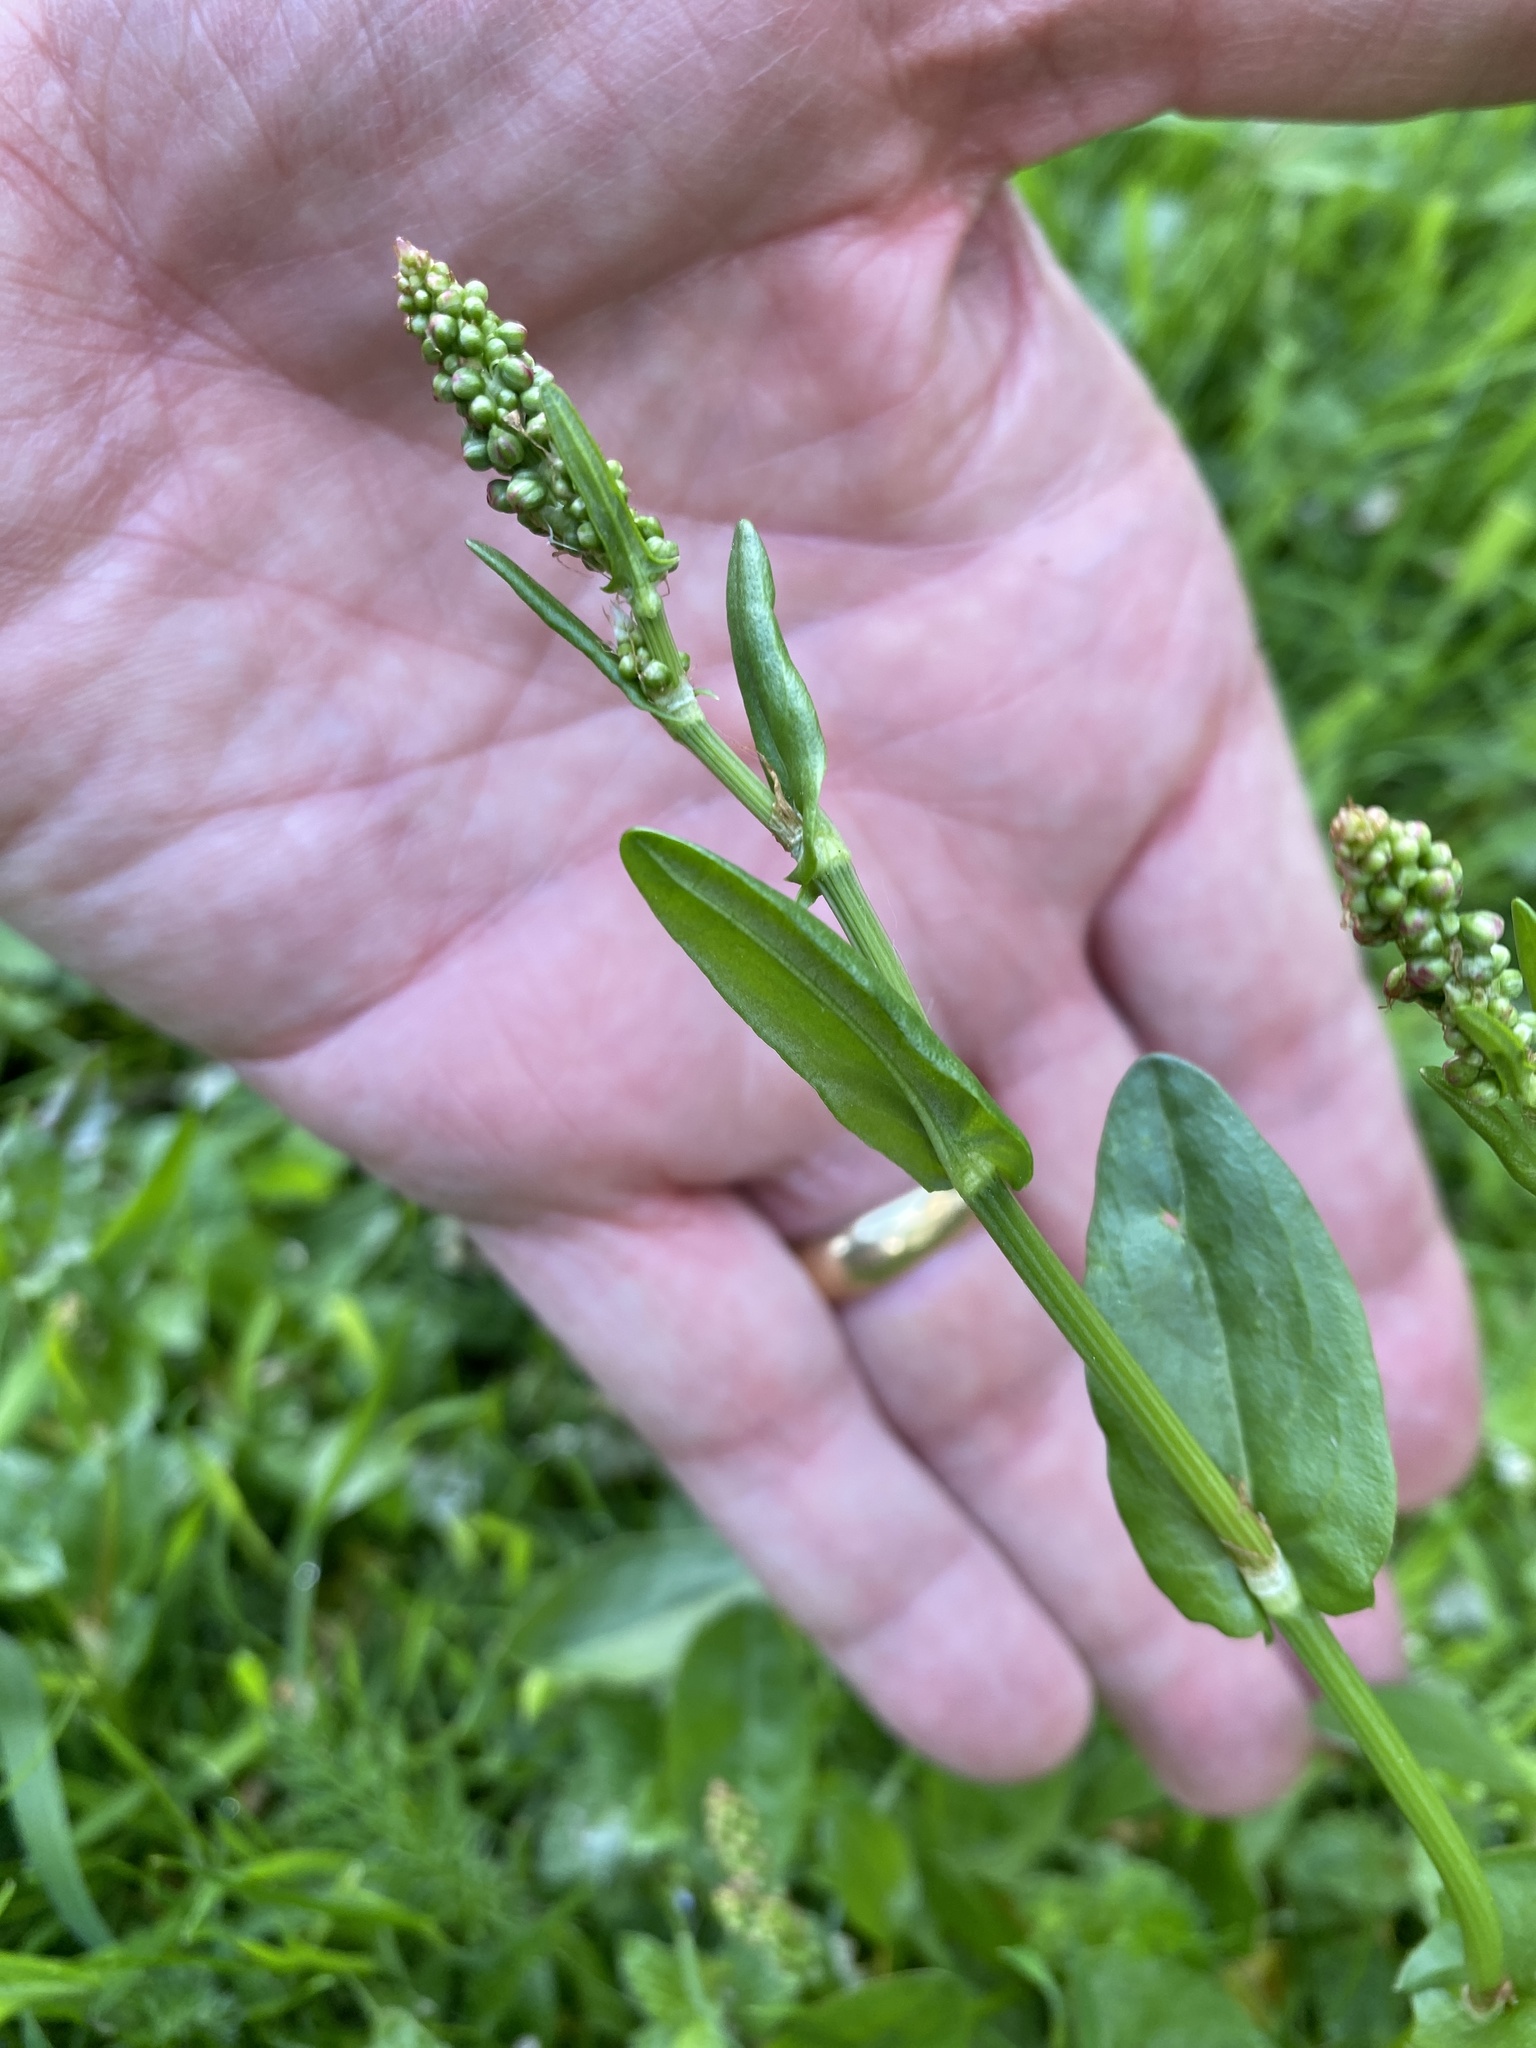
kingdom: Plantae
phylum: Tracheophyta
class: Magnoliopsida
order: Caryophyllales
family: Polygonaceae
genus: Rumex
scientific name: Rumex acetosa
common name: Garden sorrel
